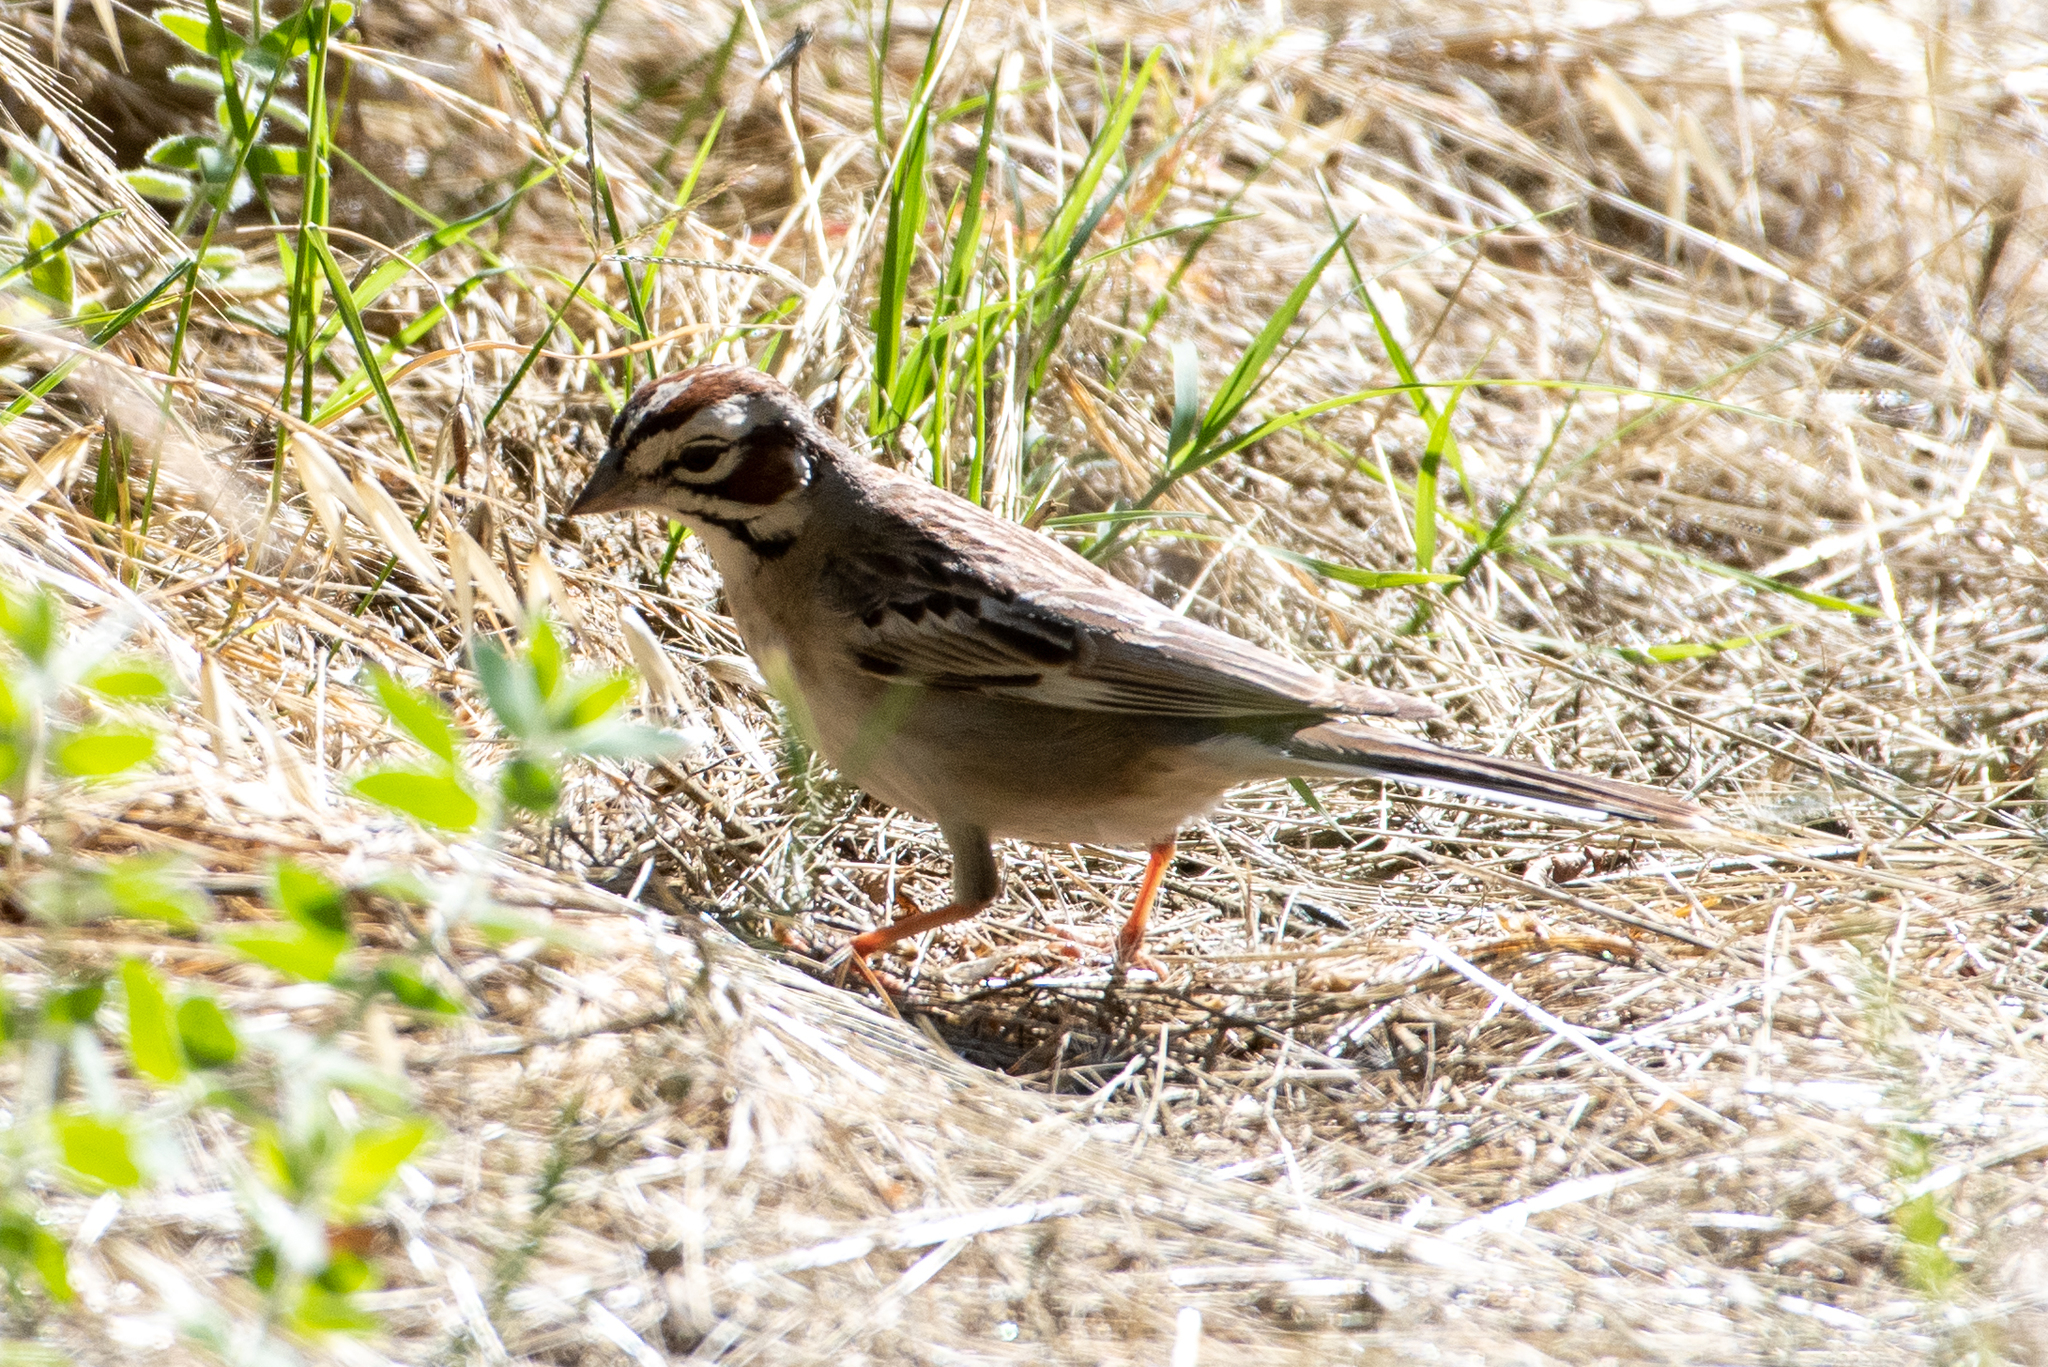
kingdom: Animalia
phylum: Chordata
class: Aves
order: Passeriformes
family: Passerellidae
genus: Chondestes
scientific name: Chondestes grammacus
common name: Lark sparrow
